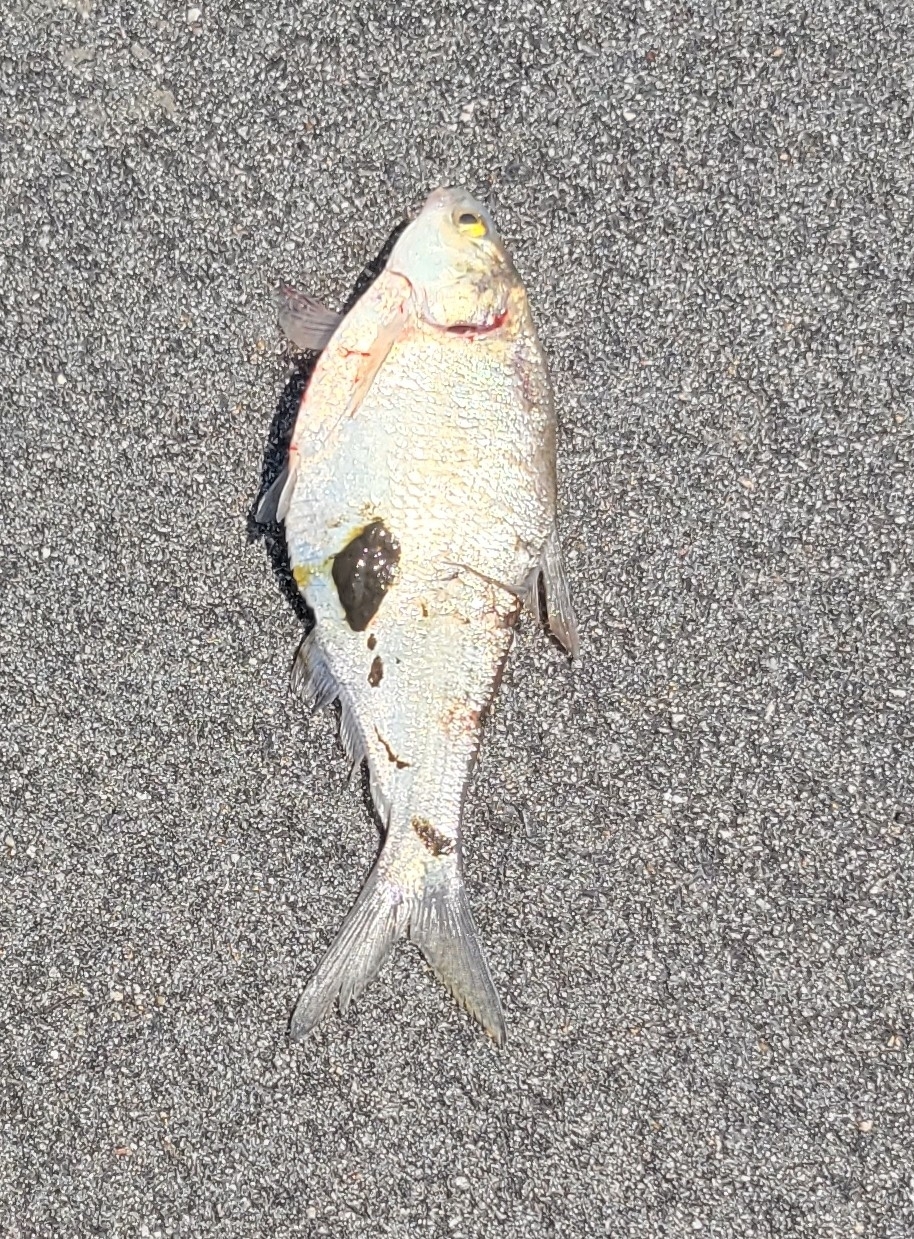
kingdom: Animalia
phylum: Chordata
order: Clupeiformes
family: Clupeidae
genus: Dorosoma
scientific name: Dorosoma cepedianum
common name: Gizzard shad
